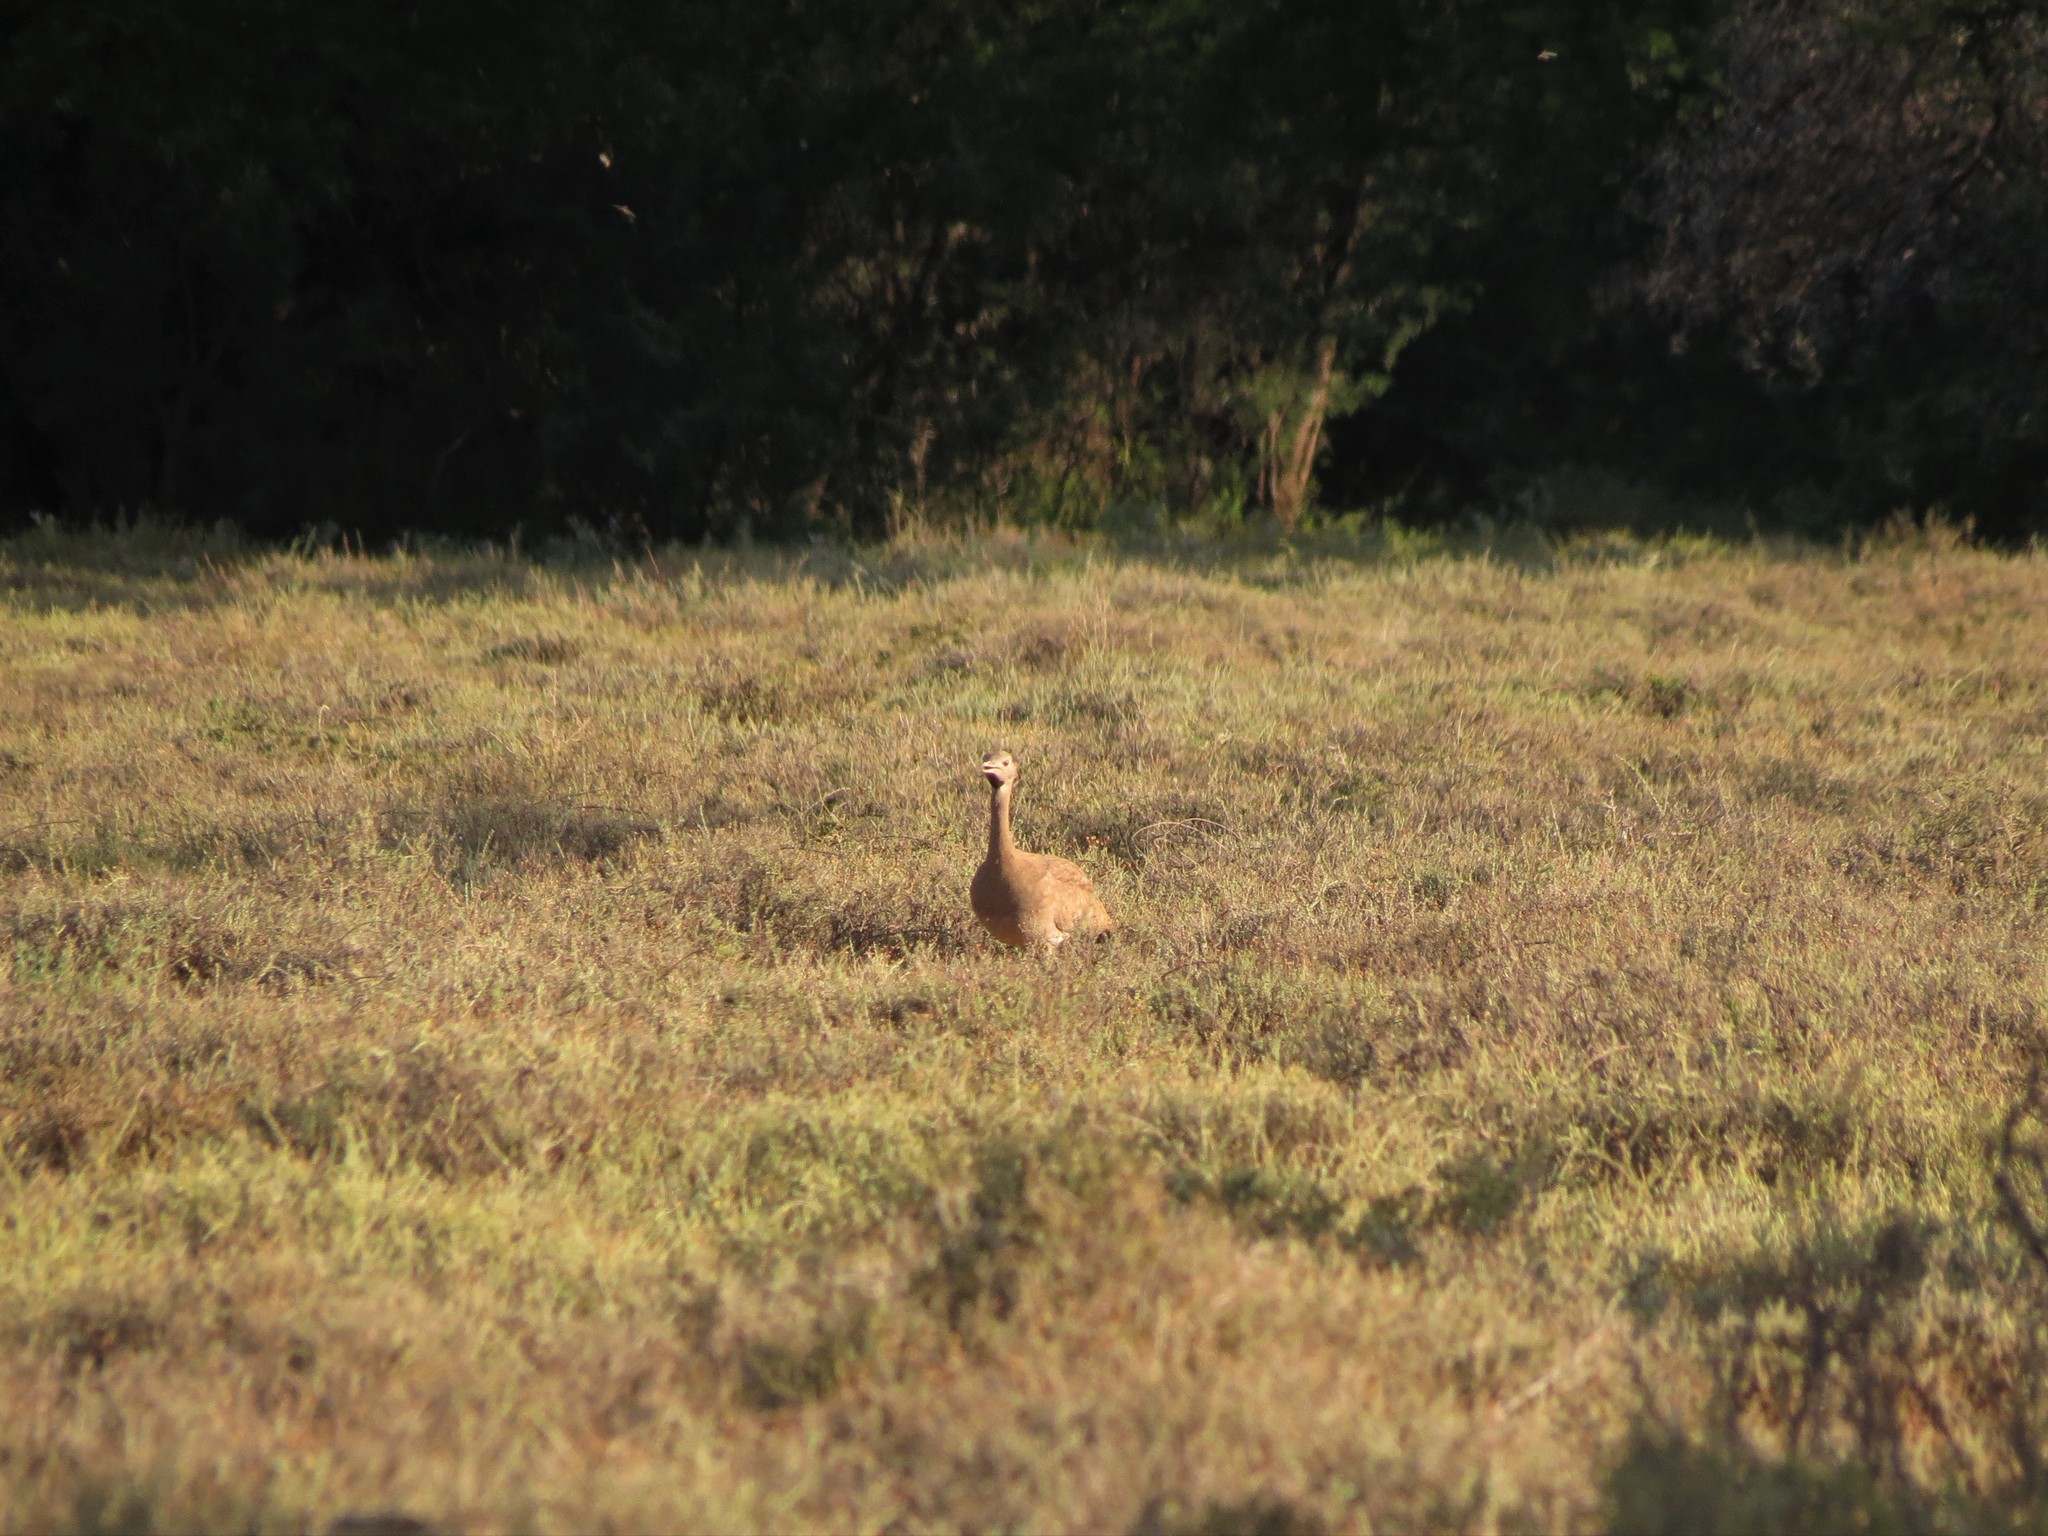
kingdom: Animalia
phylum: Chordata
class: Aves
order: Otidiformes
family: Otididae
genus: Eupodotis
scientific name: Eupodotis vigorsii
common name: Karoo korhaan
